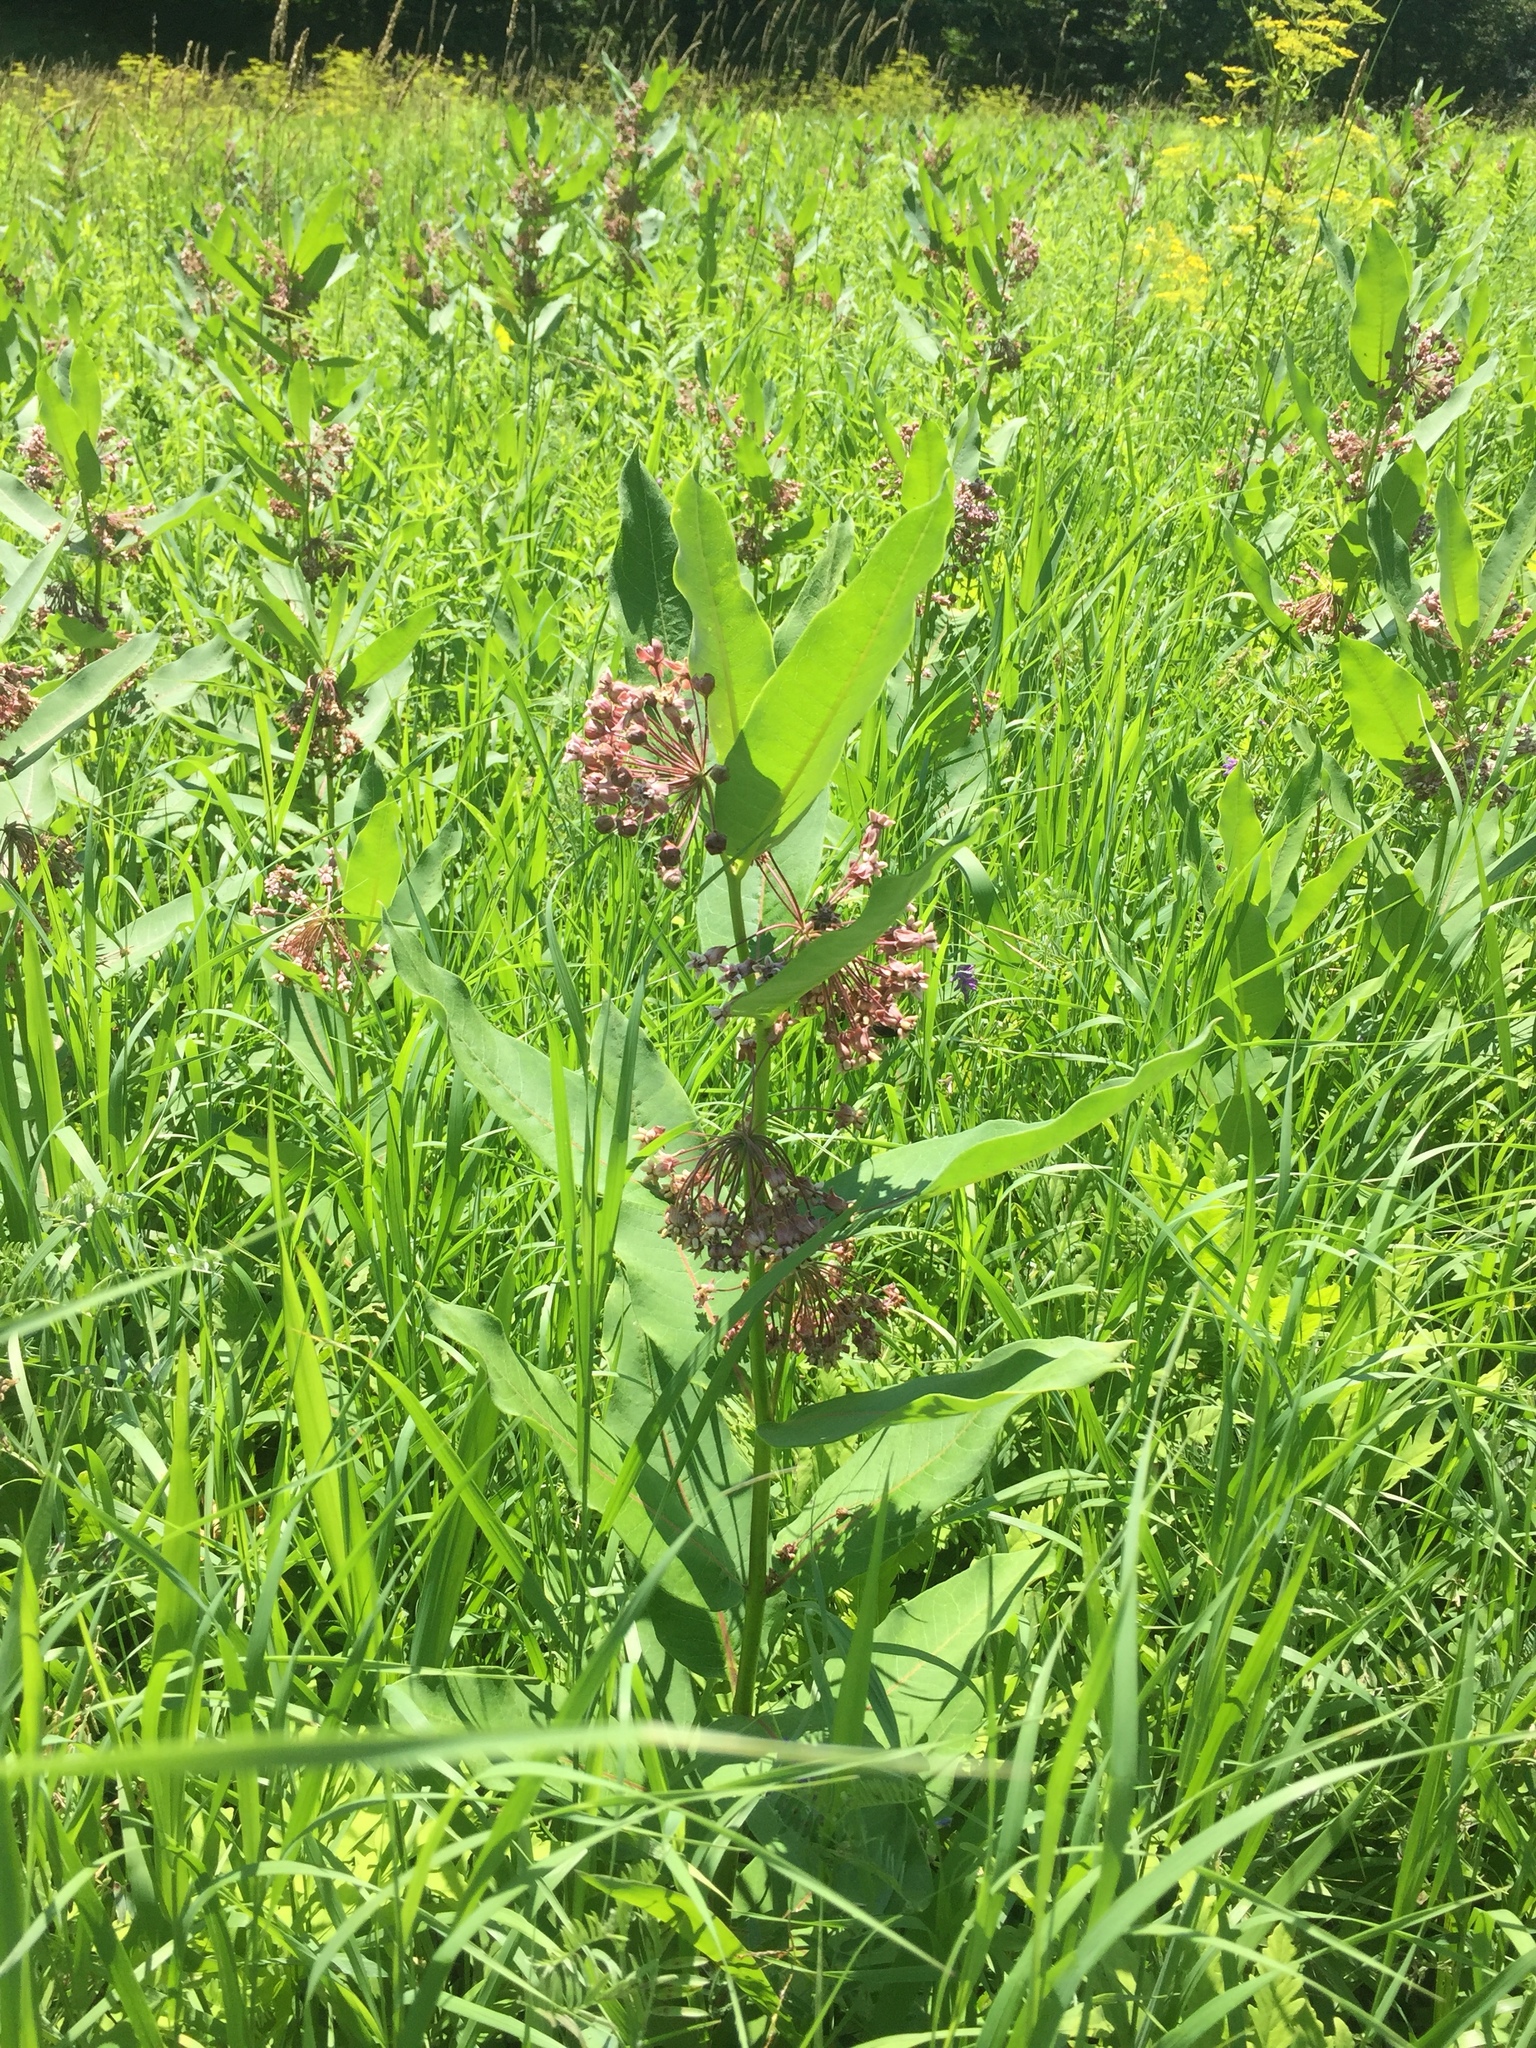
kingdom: Plantae
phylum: Tracheophyta
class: Magnoliopsida
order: Gentianales
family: Apocynaceae
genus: Asclepias
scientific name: Asclepias syriaca
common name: Common milkweed
